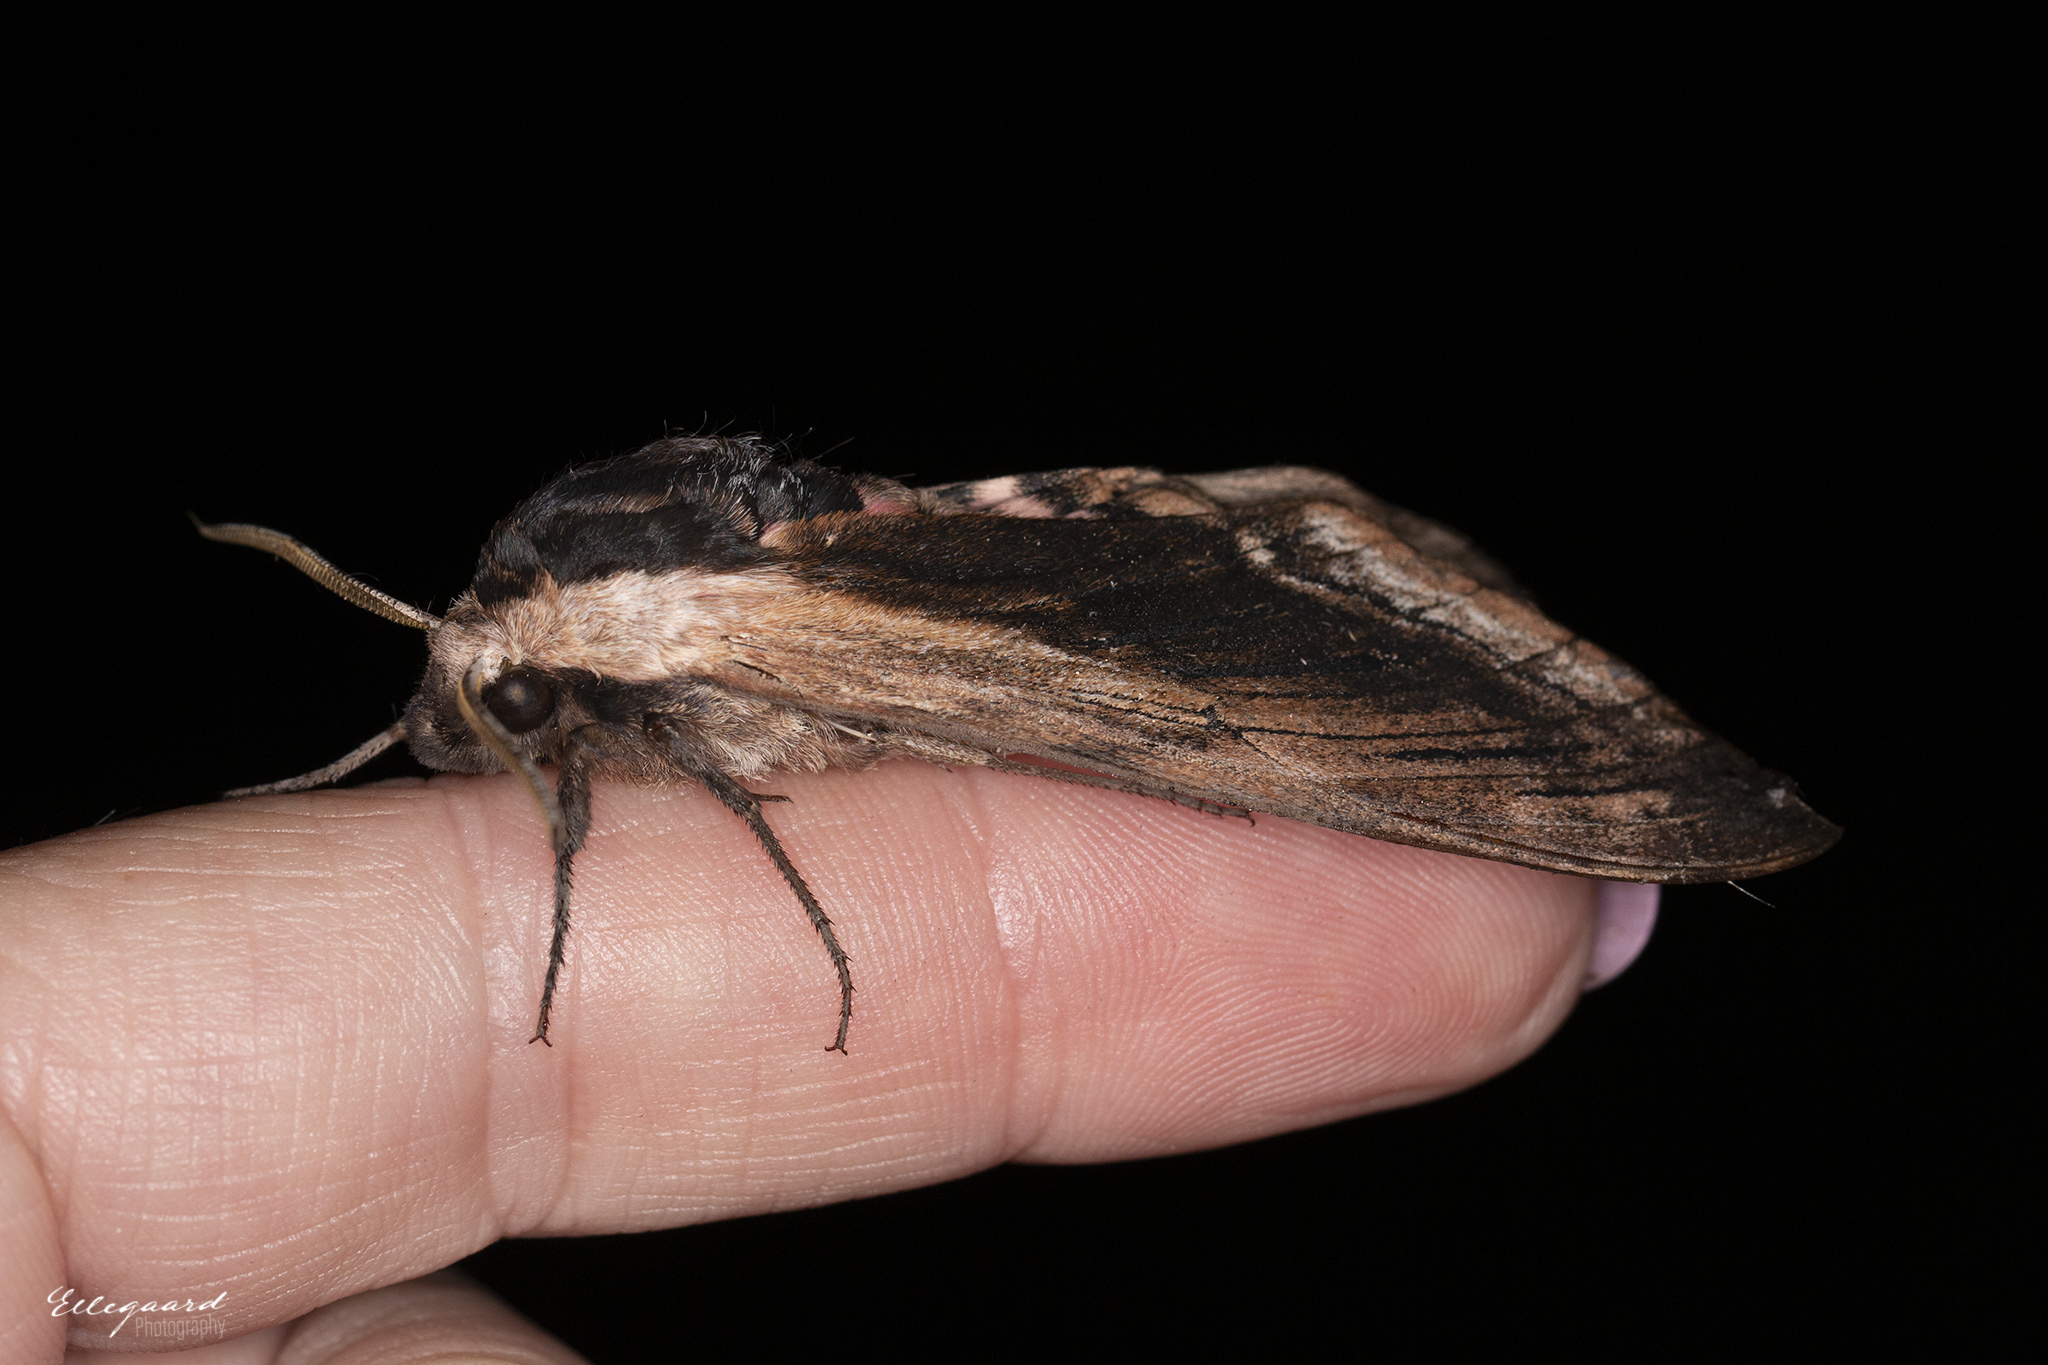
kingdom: Animalia
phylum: Arthropoda
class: Insecta
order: Lepidoptera
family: Sphingidae
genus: Sphinx
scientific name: Sphinx ligustri
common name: Privet hawk-moth
